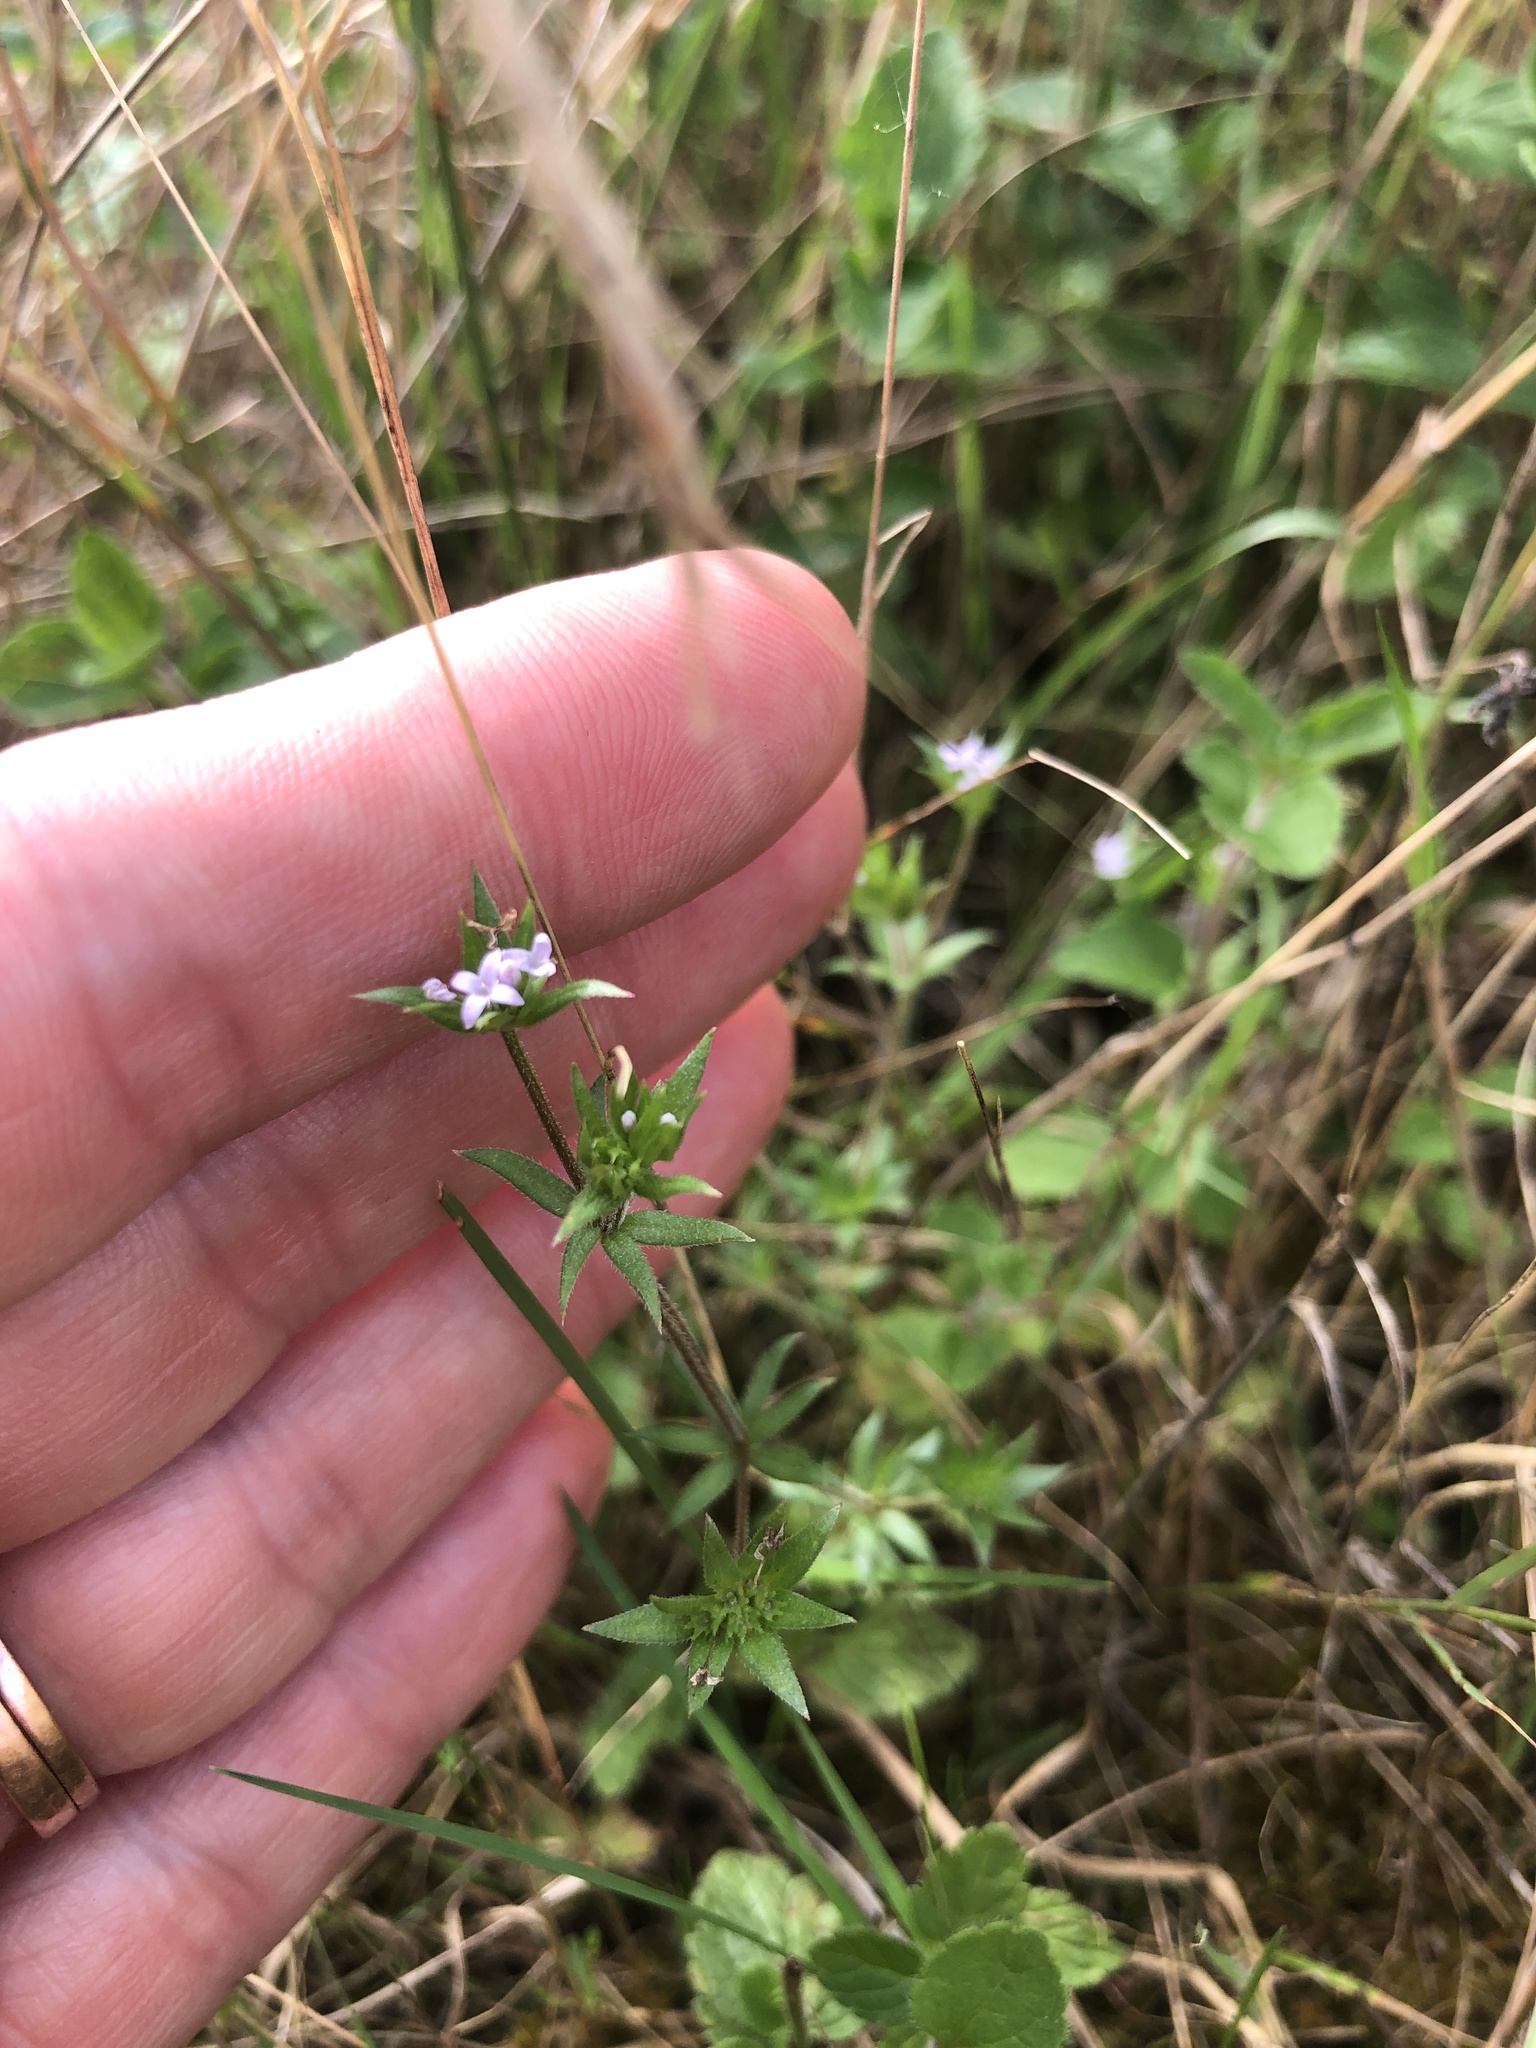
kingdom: Plantae
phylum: Tracheophyta
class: Magnoliopsida
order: Gentianales
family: Rubiaceae
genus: Sherardia
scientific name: Sherardia arvensis
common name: Field madder
